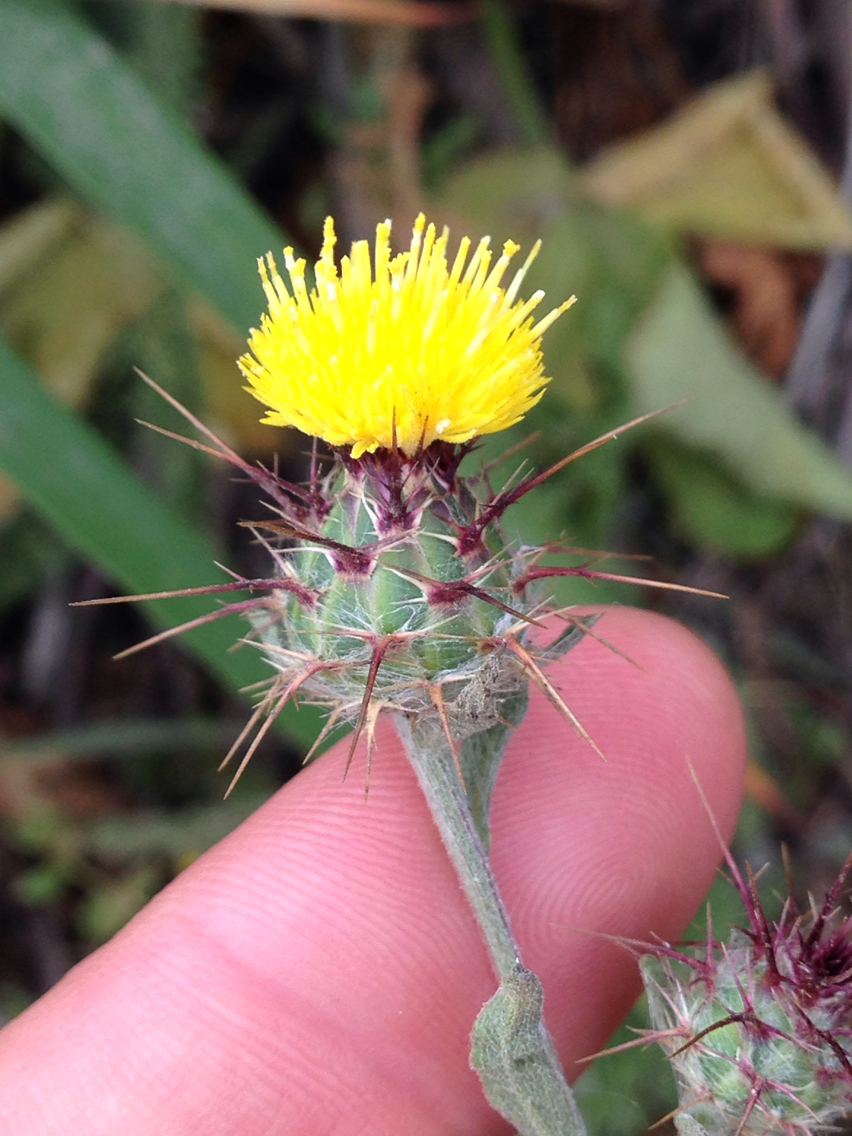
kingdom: Plantae
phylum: Tracheophyta
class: Magnoliopsida
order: Asterales
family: Asteraceae
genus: Centaurea
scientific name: Centaurea melitensis
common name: Maltese star-thistle
